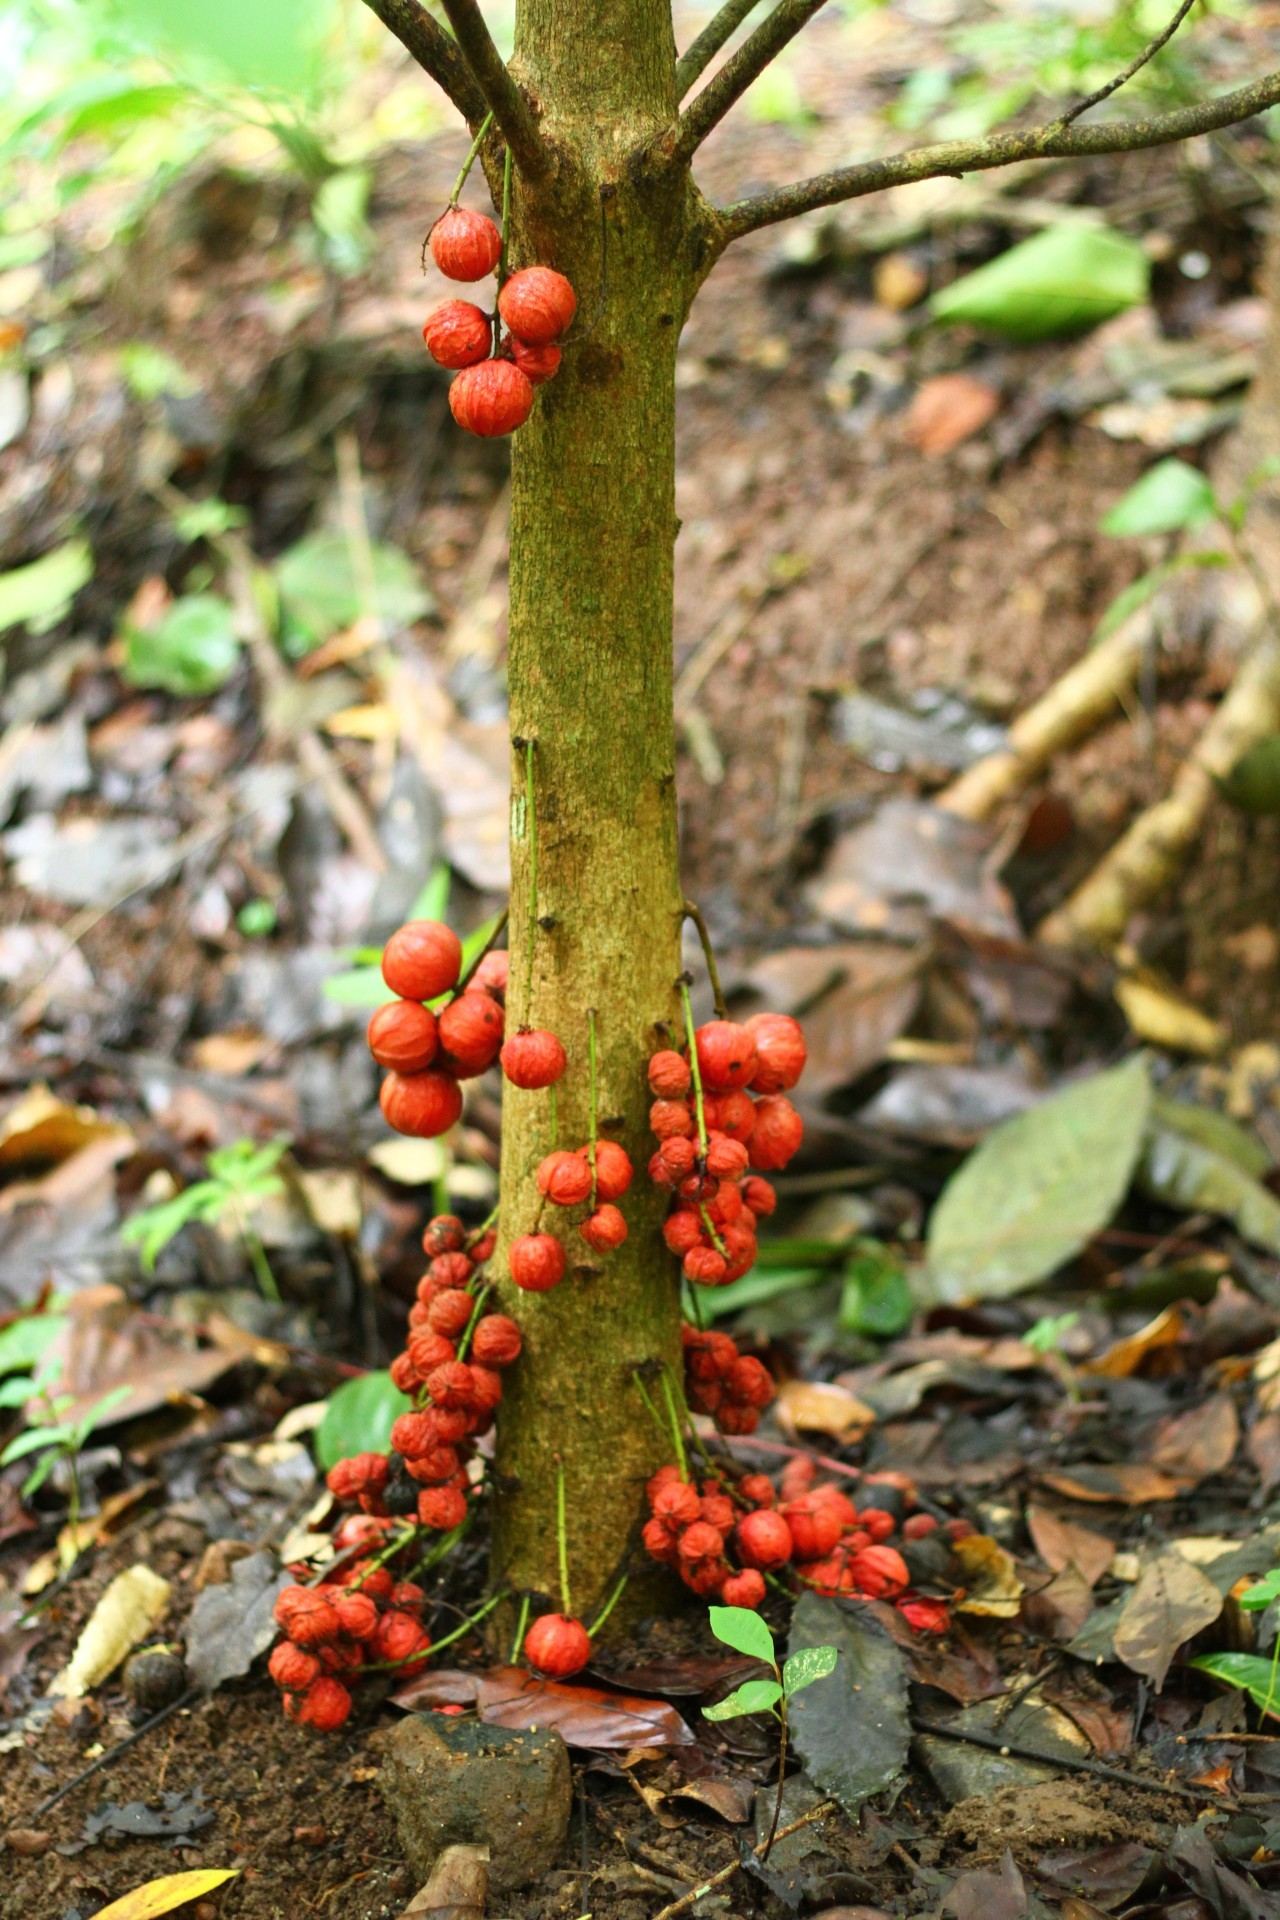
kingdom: Plantae
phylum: Tracheophyta
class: Magnoliopsida
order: Malpighiales
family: Phyllanthaceae
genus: Baccaurea
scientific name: Baccaurea courtallensis
